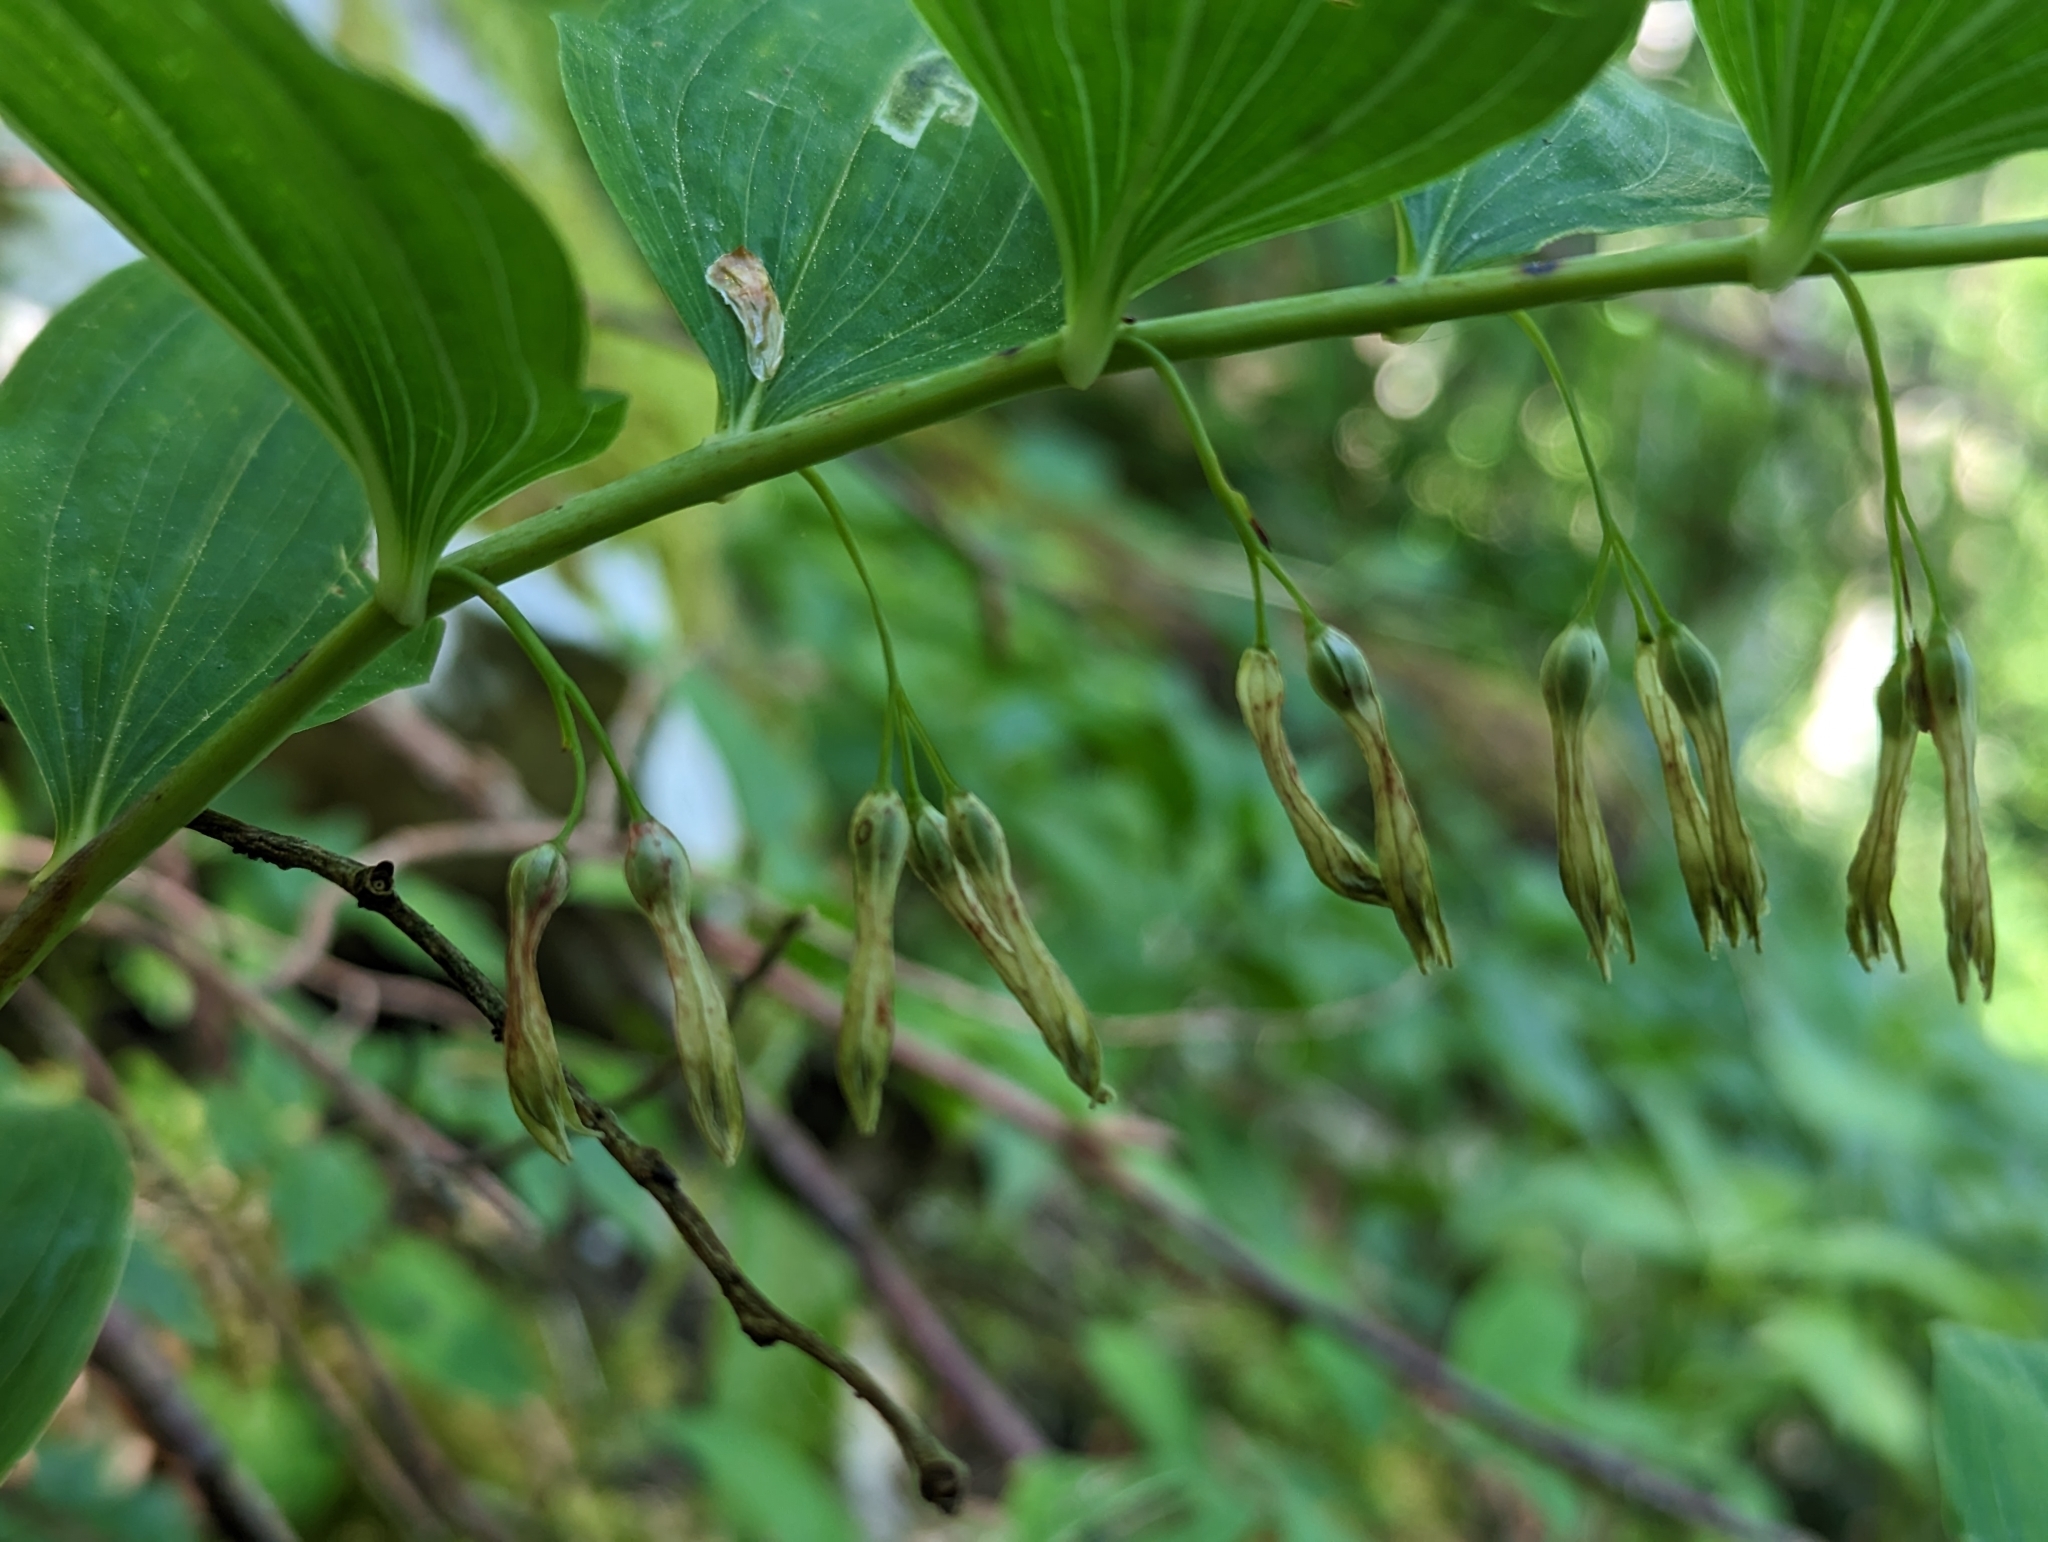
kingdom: Plantae
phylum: Tracheophyta
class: Liliopsida
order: Asparagales
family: Asparagaceae
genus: Polygonatum
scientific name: Polygonatum multiflorum
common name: Solomon's-seal
